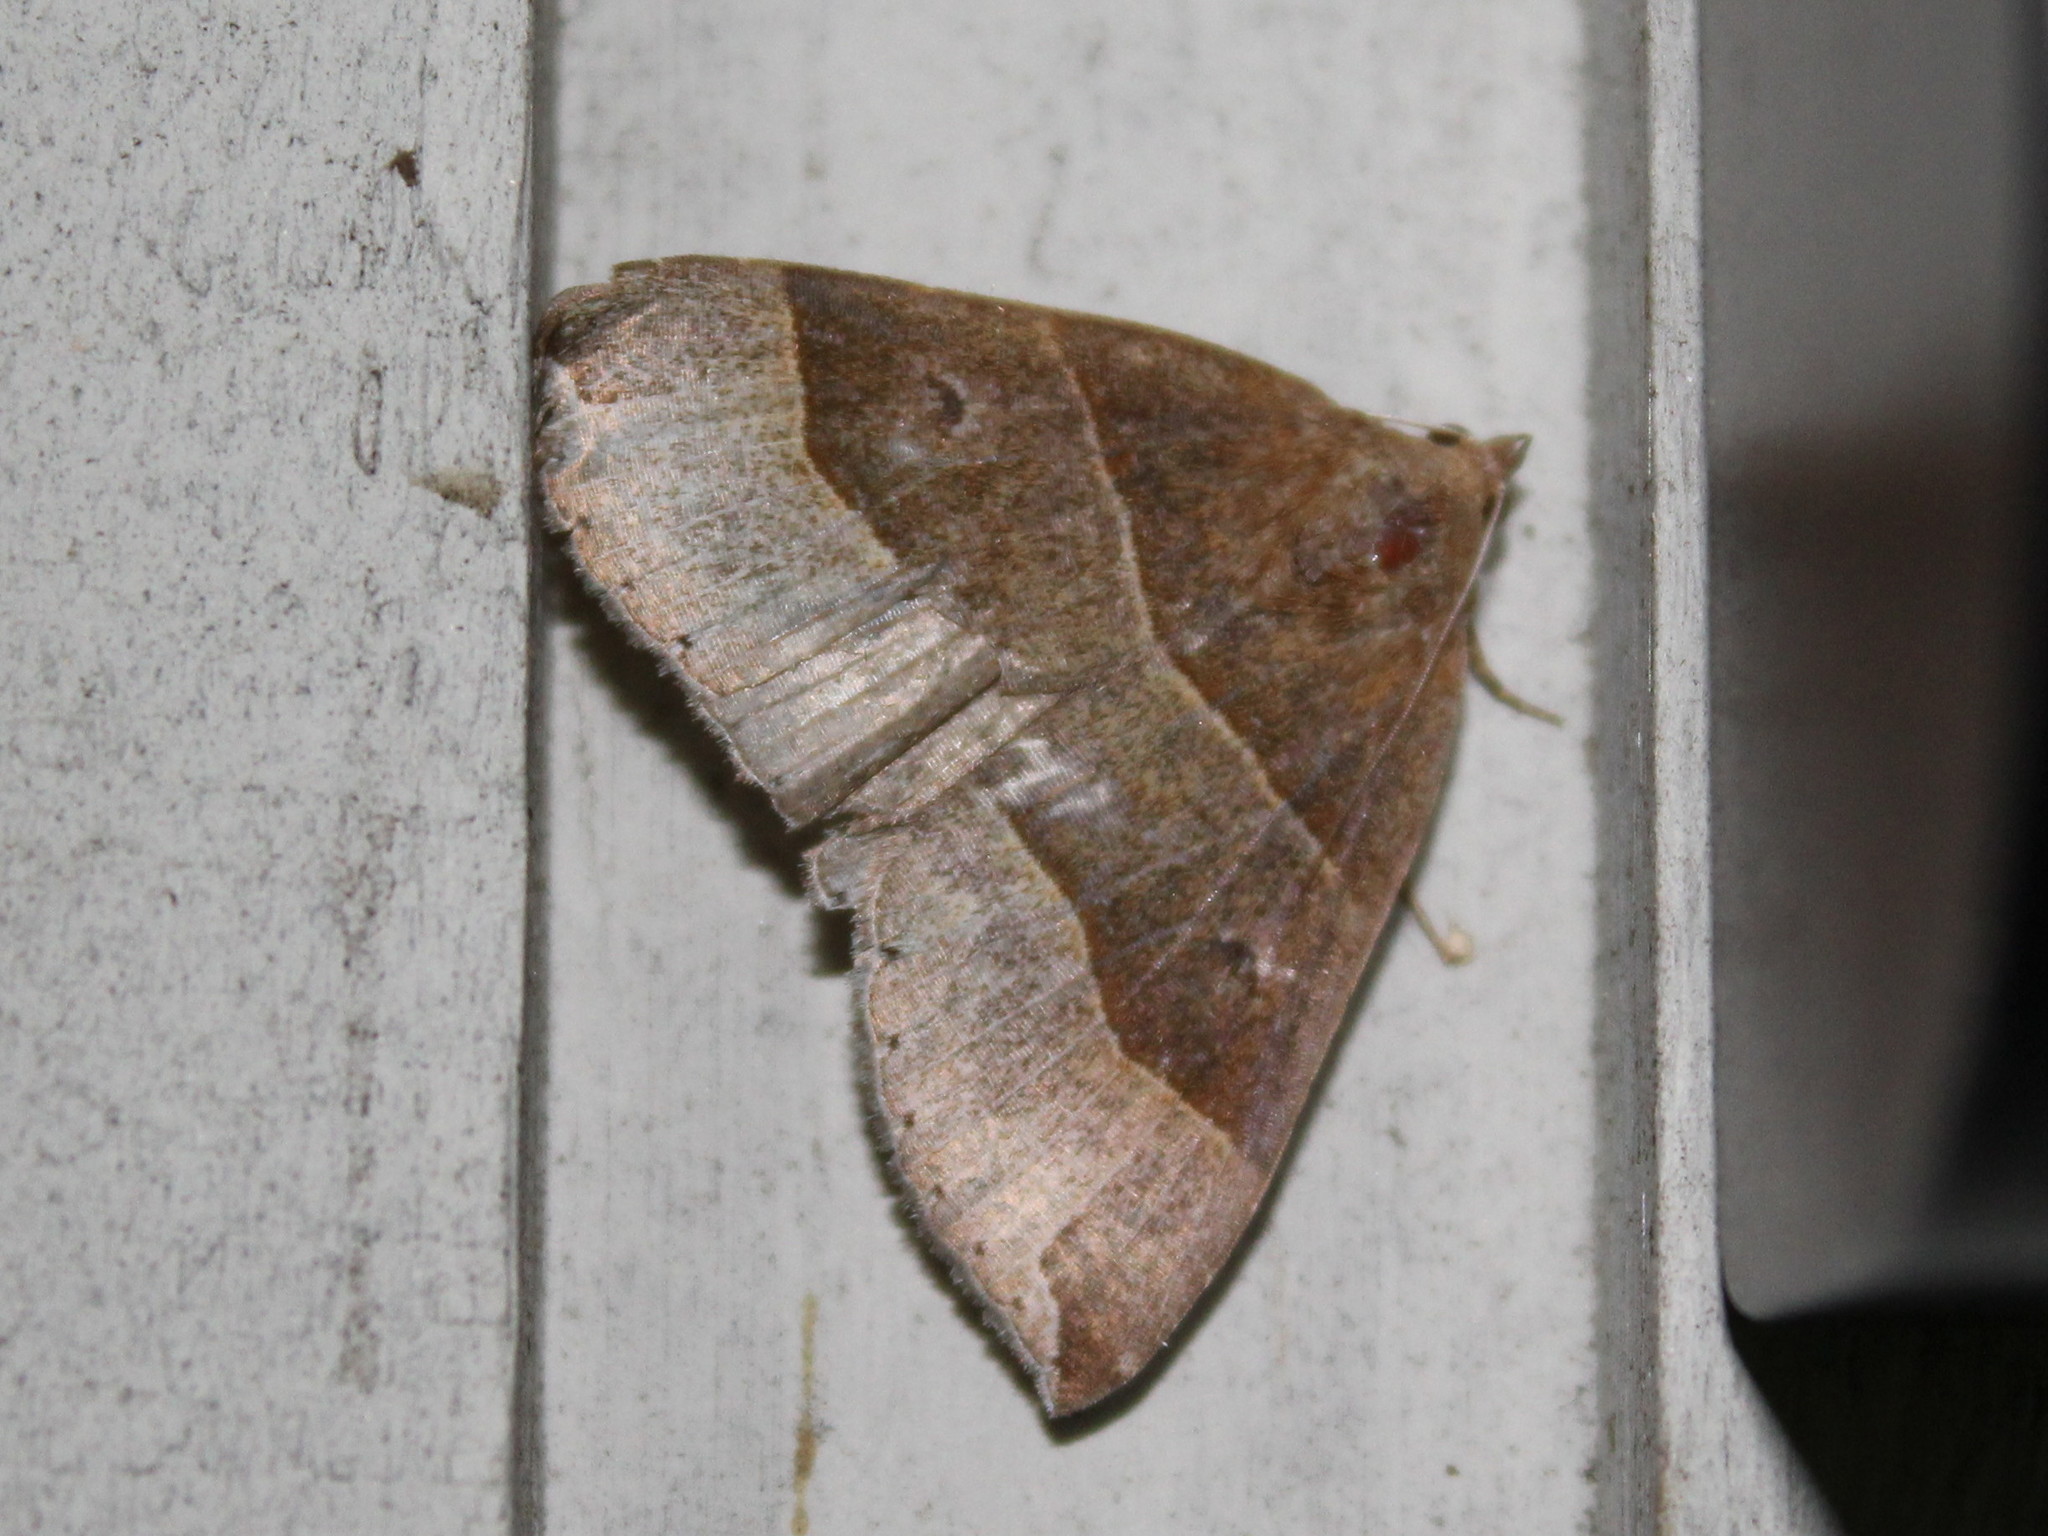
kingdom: Animalia
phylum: Arthropoda
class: Insecta
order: Lepidoptera
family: Erebidae
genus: Parallelia
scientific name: Parallelia bistriaris
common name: Maple looper moth
